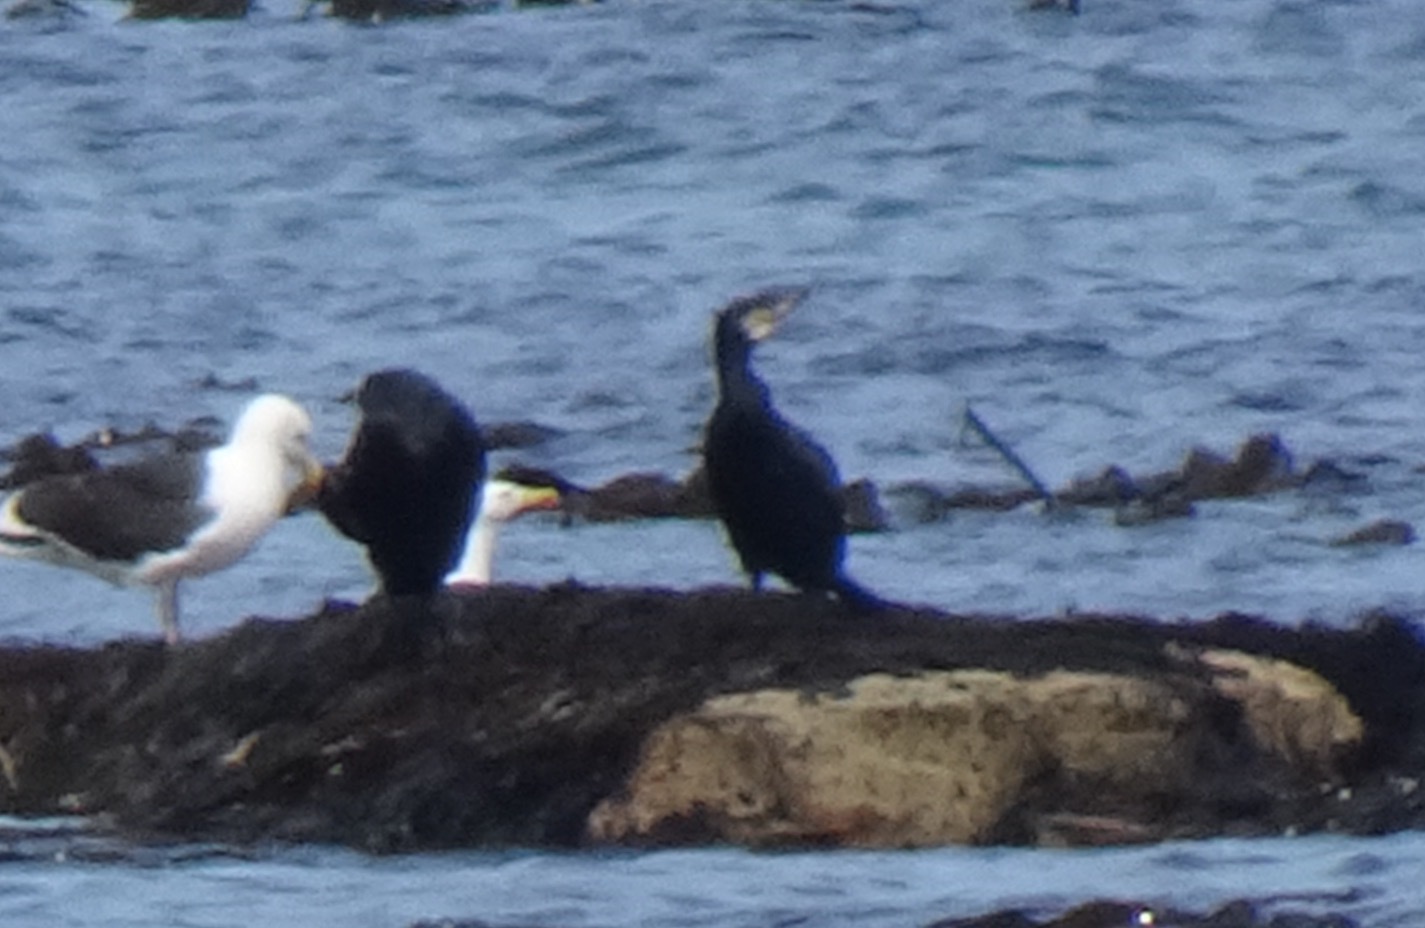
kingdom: Animalia
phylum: Chordata
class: Aves
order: Suliformes
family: Phalacrocoracidae
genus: Phalacrocorax
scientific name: Phalacrocorax carbo
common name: Great cormorant
